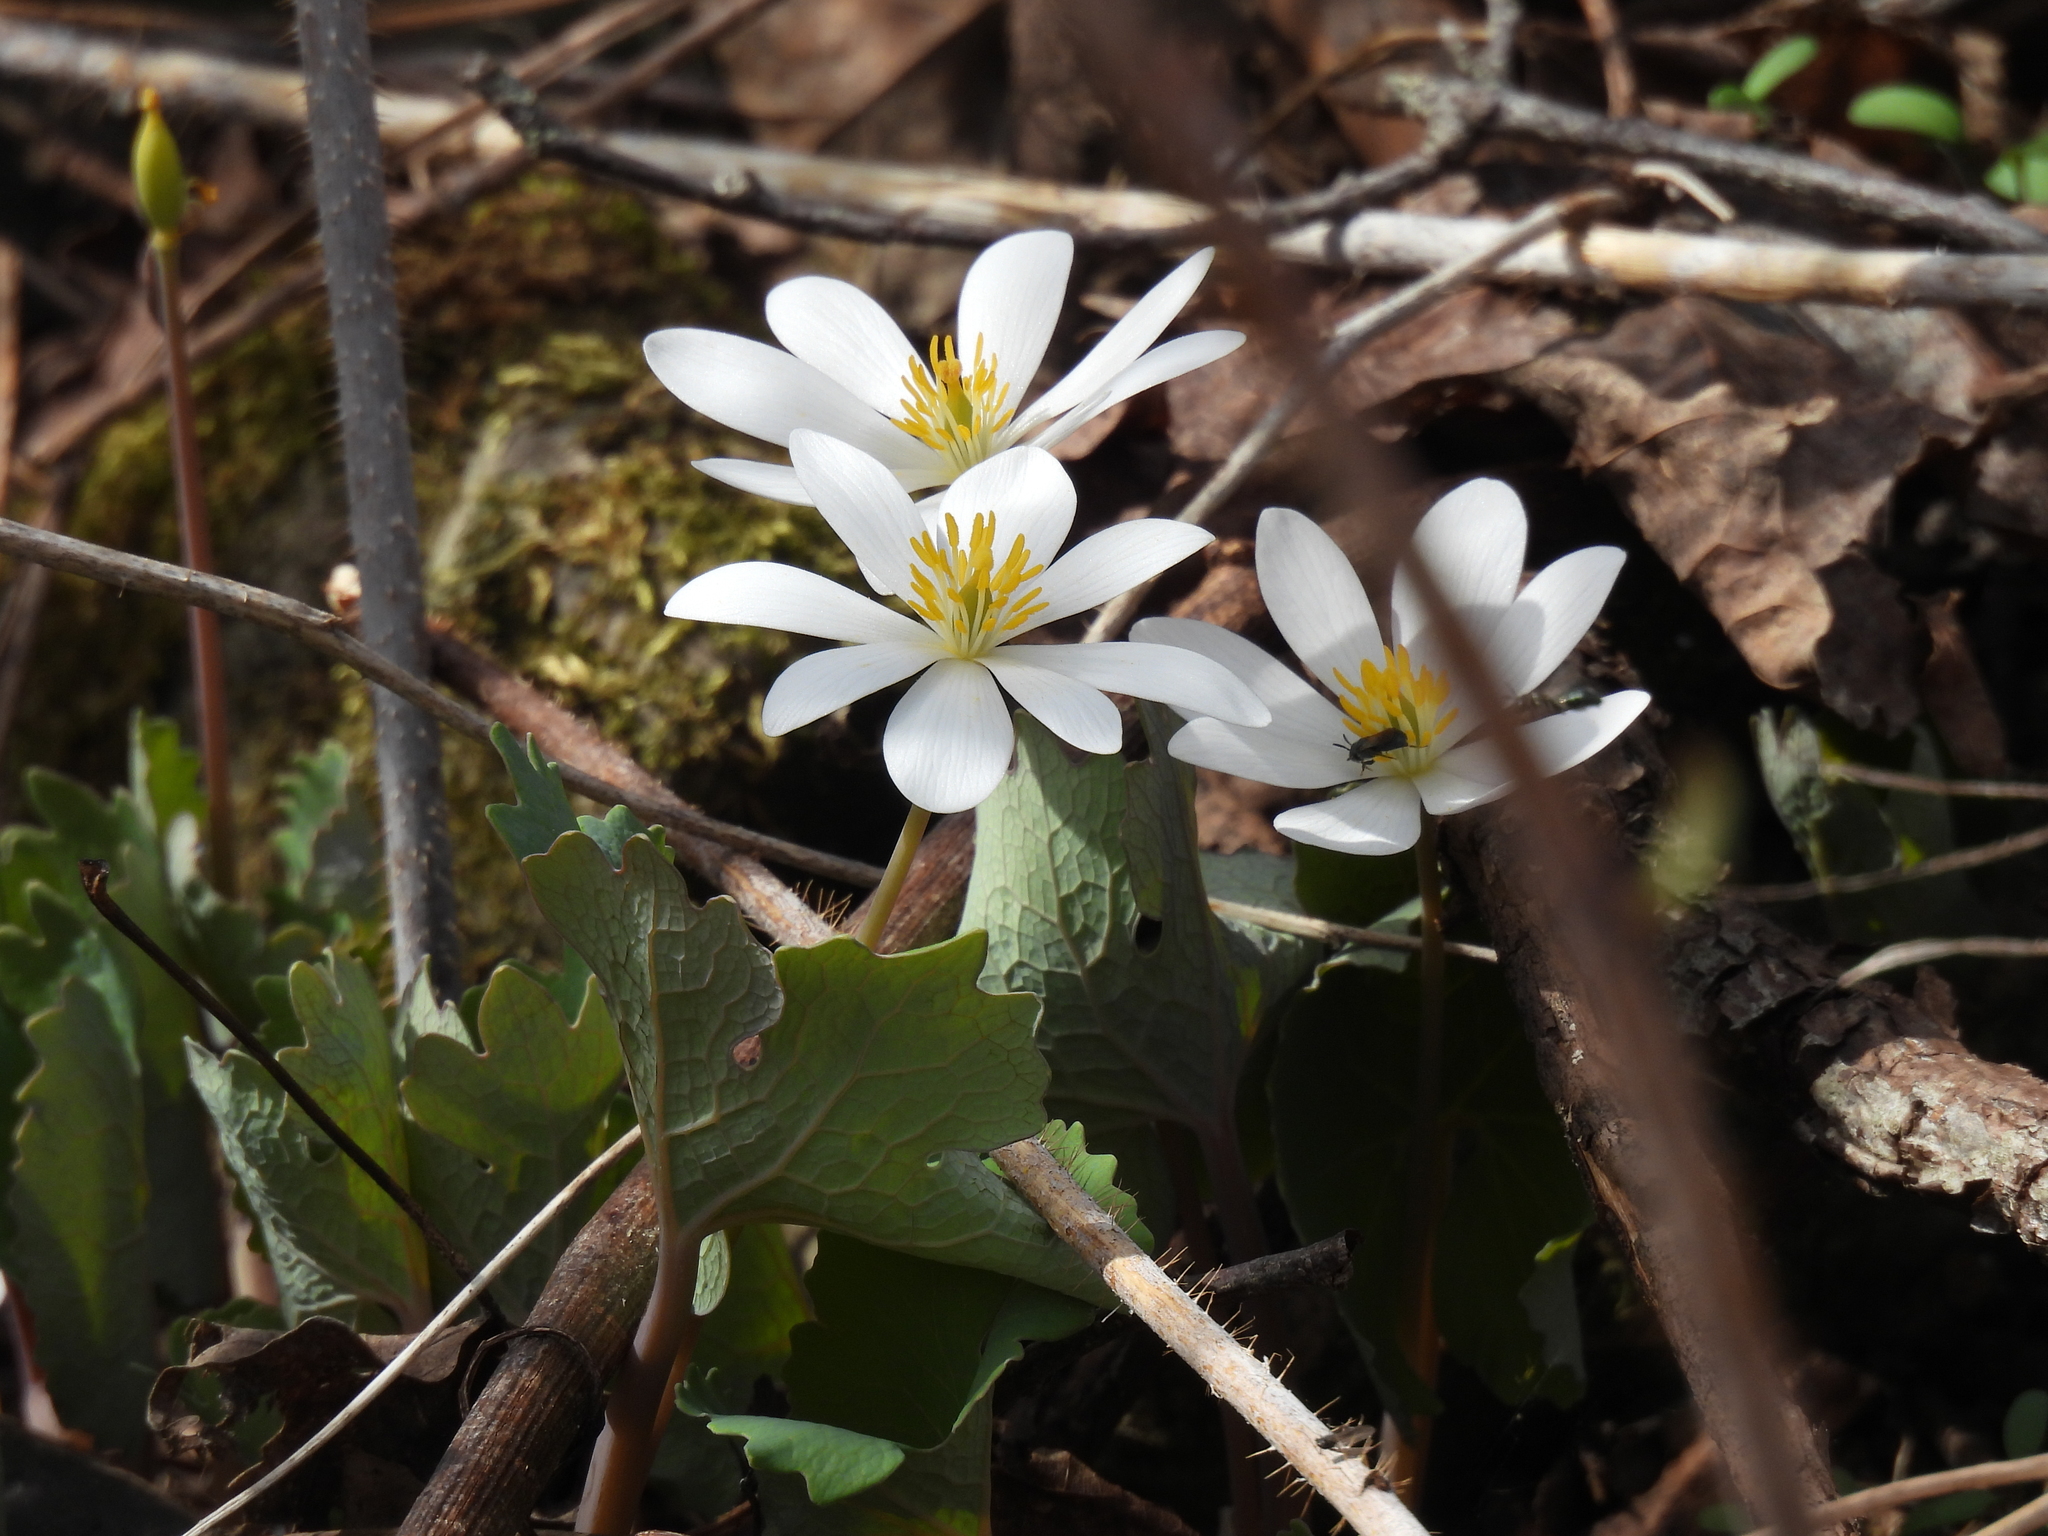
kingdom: Plantae
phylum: Tracheophyta
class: Magnoliopsida
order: Ranunculales
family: Papaveraceae
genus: Sanguinaria
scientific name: Sanguinaria canadensis
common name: Bloodroot
